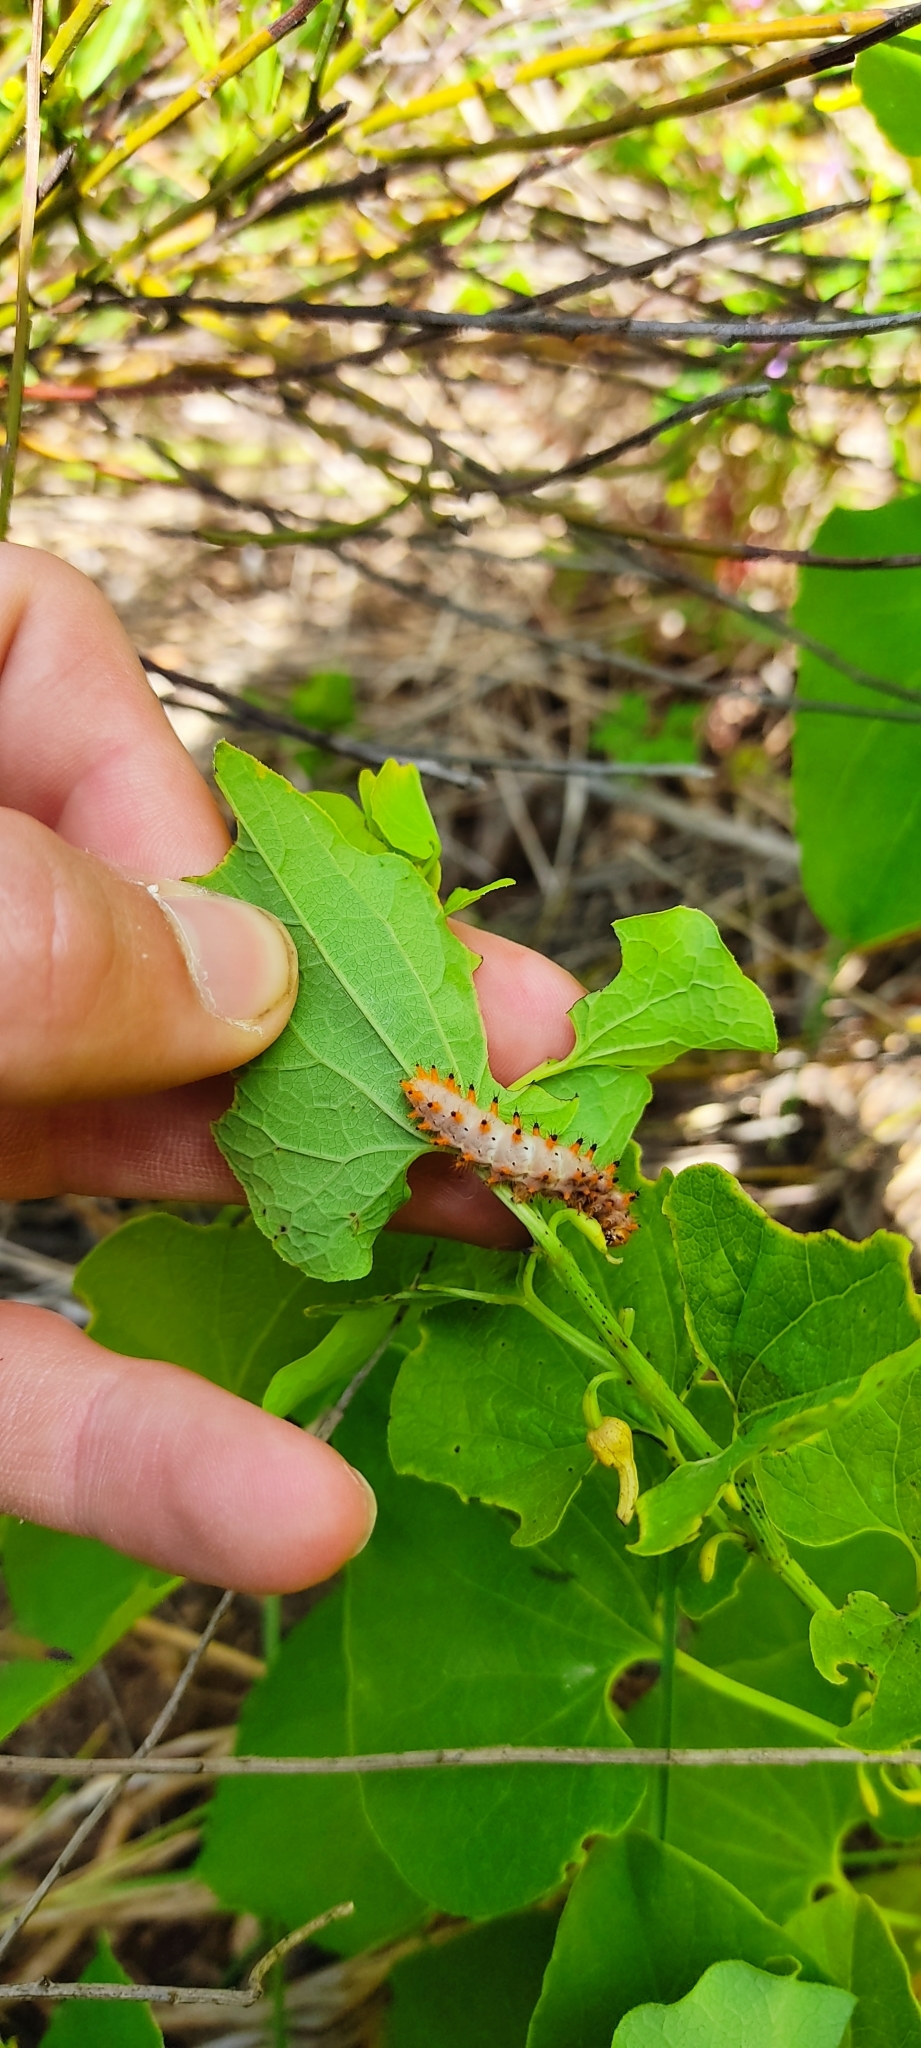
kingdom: Animalia
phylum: Arthropoda
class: Insecta
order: Lepidoptera
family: Papilionidae
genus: Zerynthia
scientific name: Zerynthia polyxena
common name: Southern festoon
